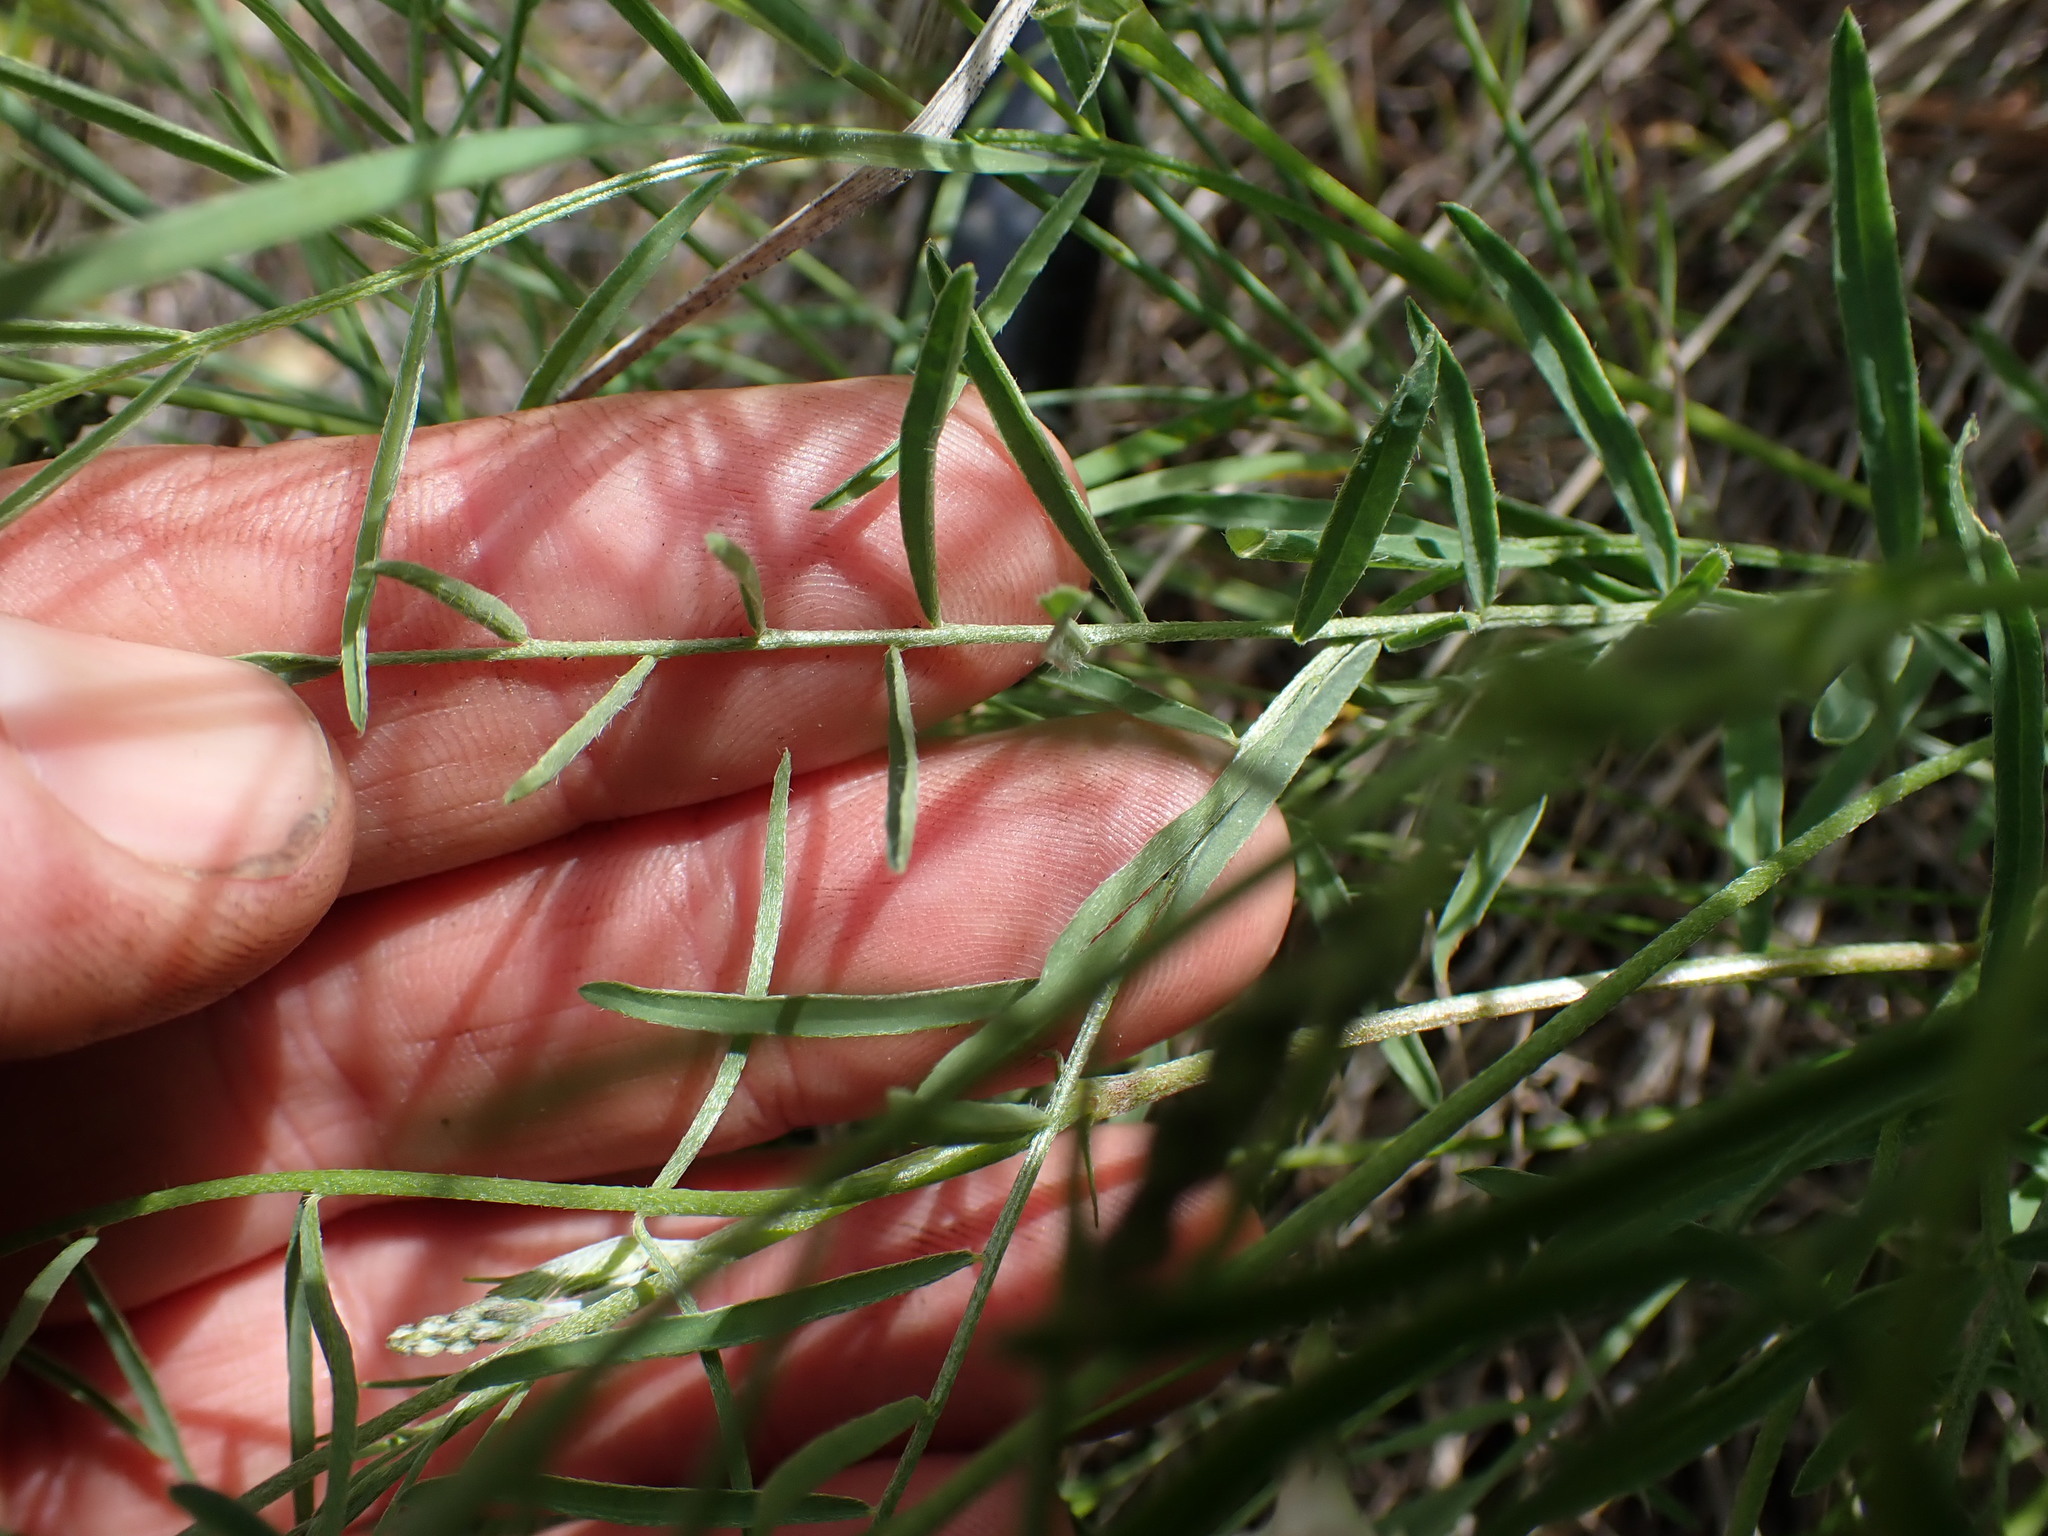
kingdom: Plantae
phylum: Tracheophyta
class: Magnoliopsida
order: Fabales
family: Fabaceae
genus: Astragalus
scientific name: Astragalus miser
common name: Timber milkvetch
